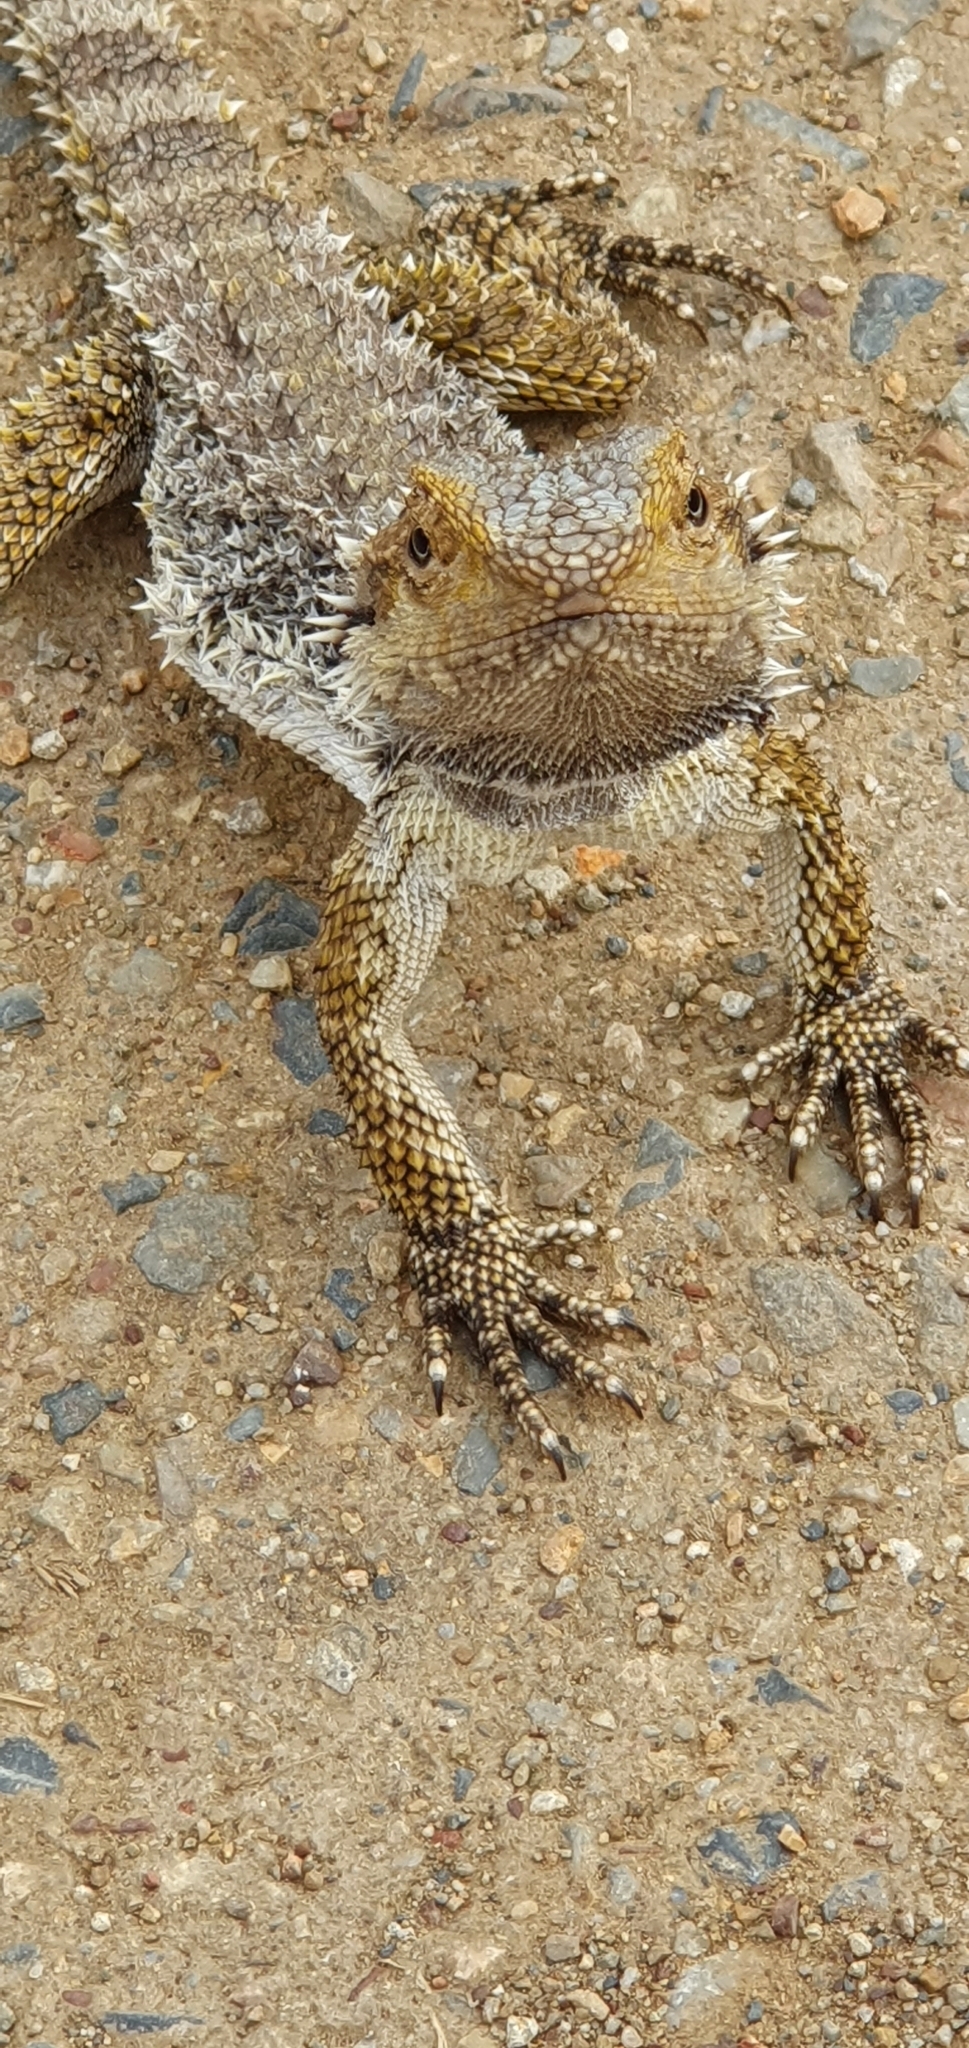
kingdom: Animalia
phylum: Chordata
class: Squamata
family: Agamidae
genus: Pogona
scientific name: Pogona barbata
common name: Bearded dragon
